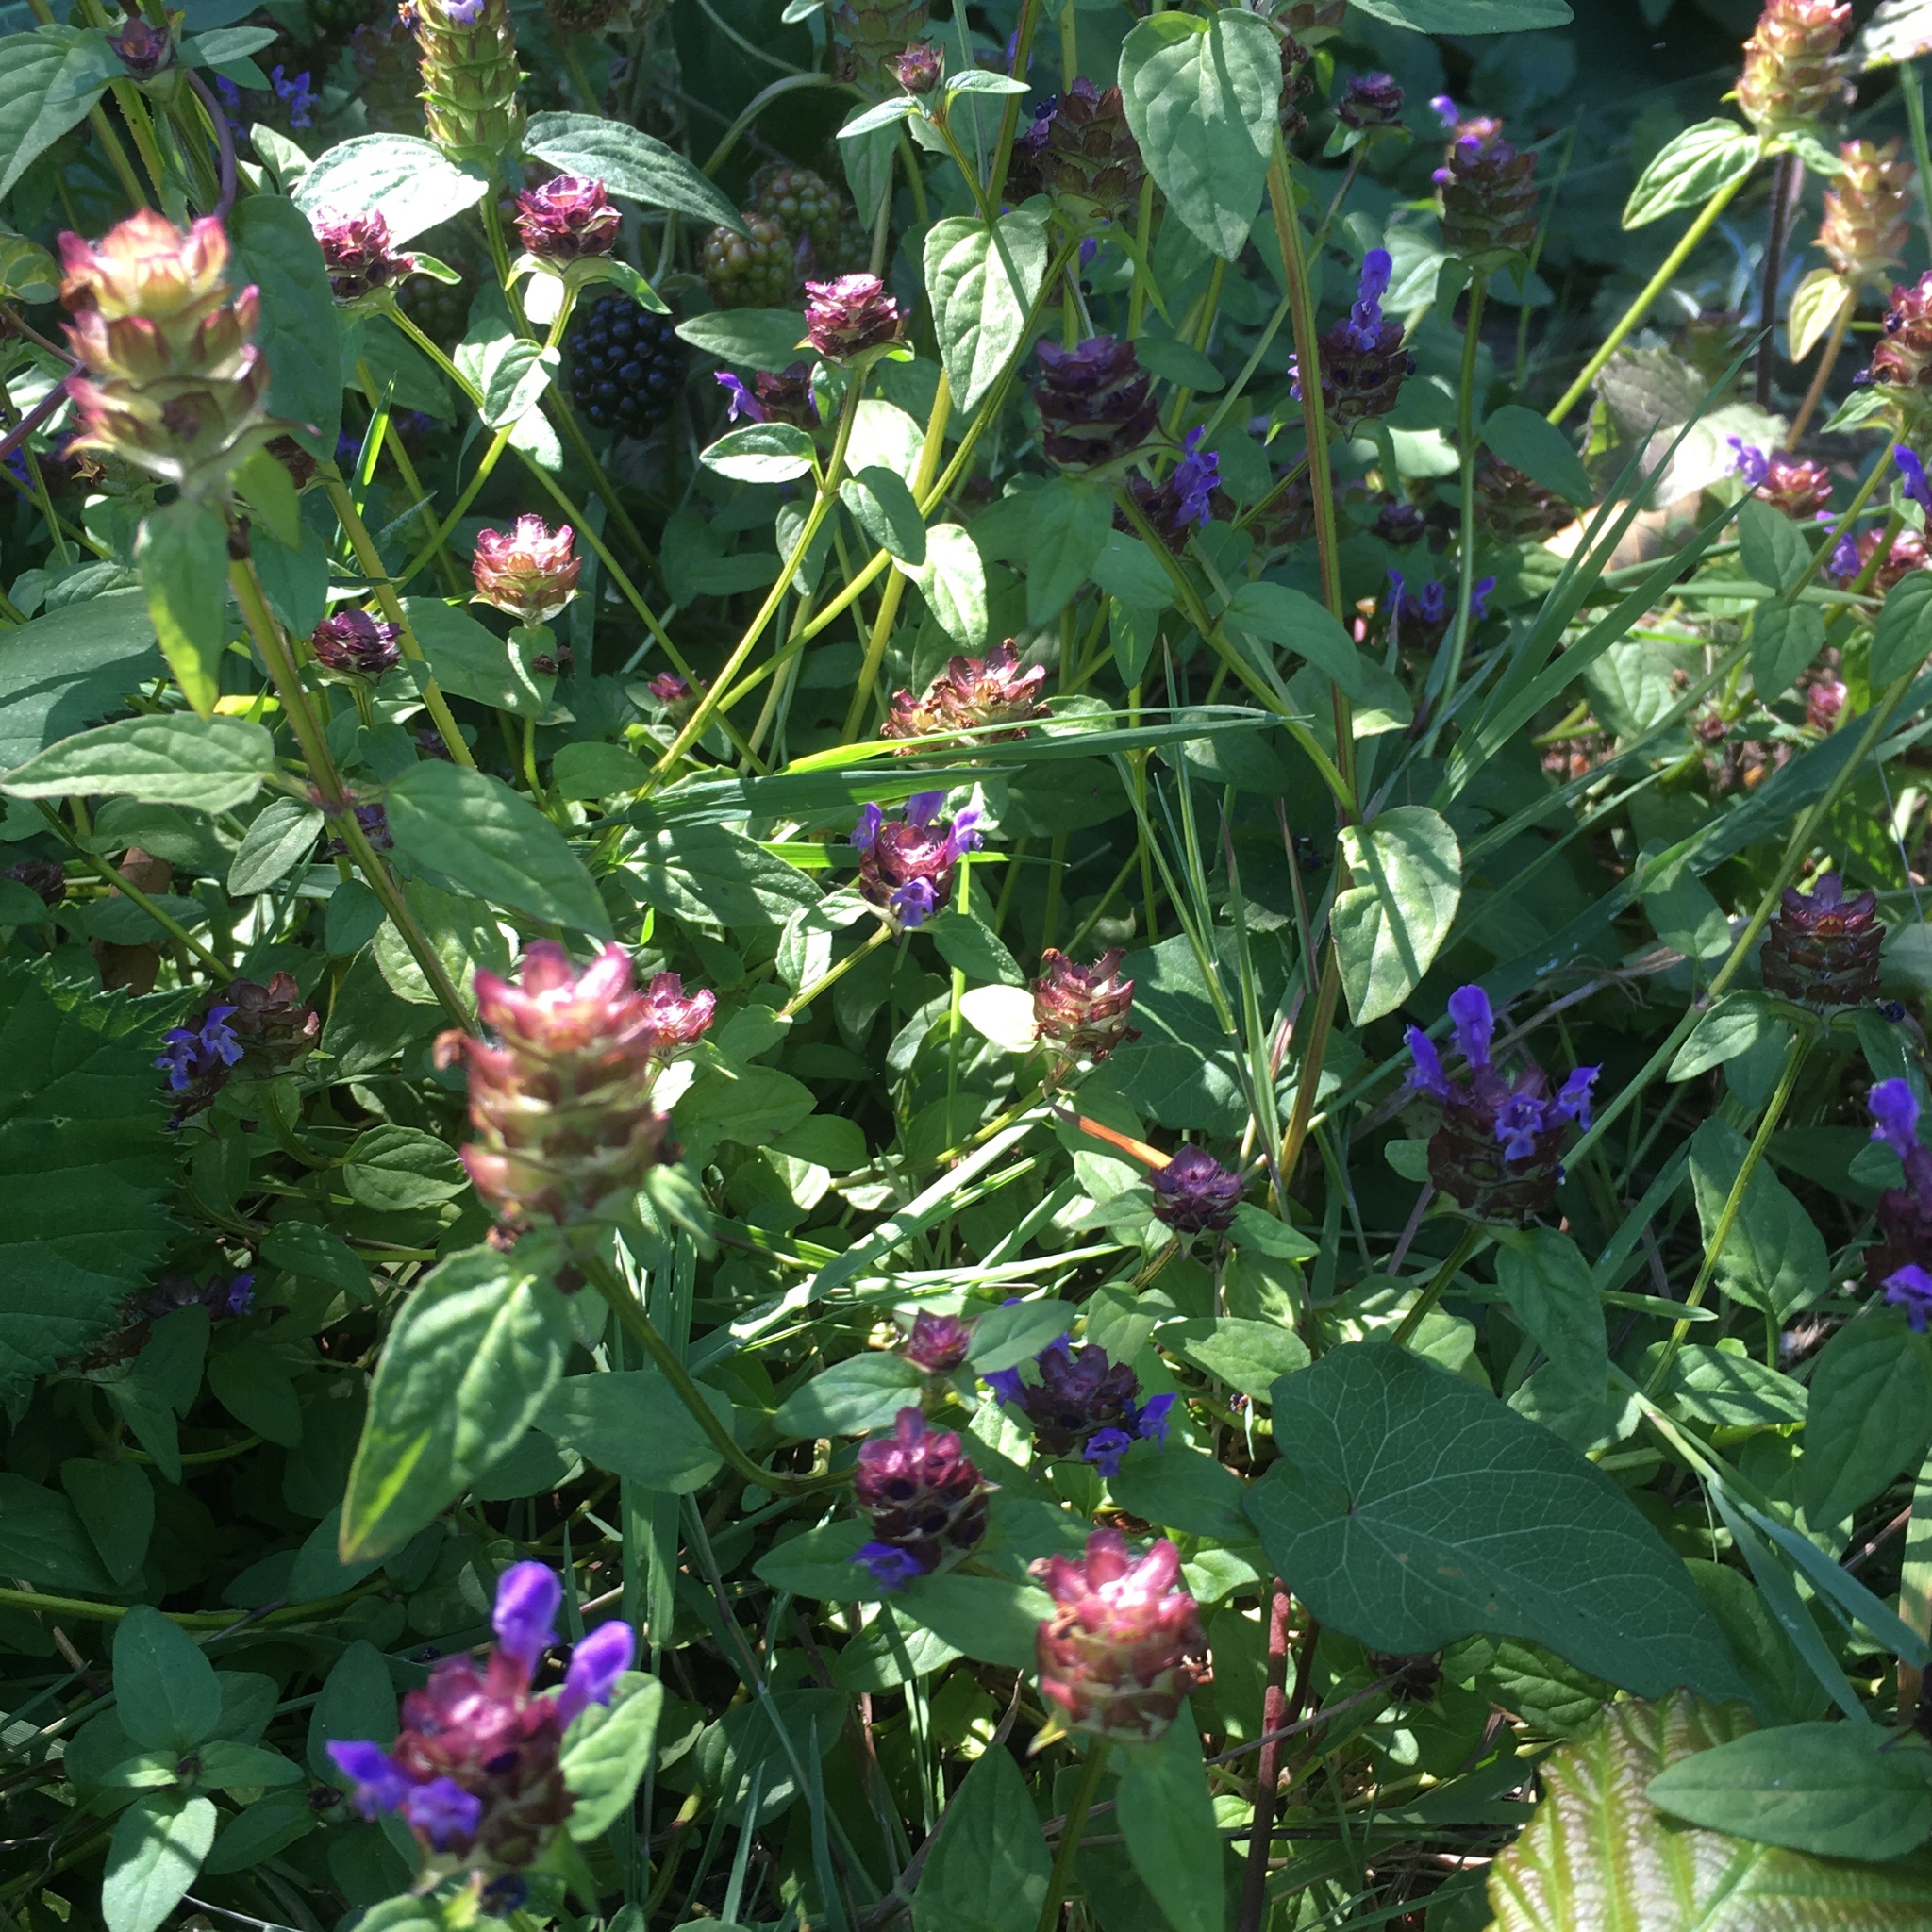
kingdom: Plantae
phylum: Tracheophyta
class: Magnoliopsida
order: Lamiales
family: Lamiaceae
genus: Prunella
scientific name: Prunella vulgaris
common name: Heal-all
